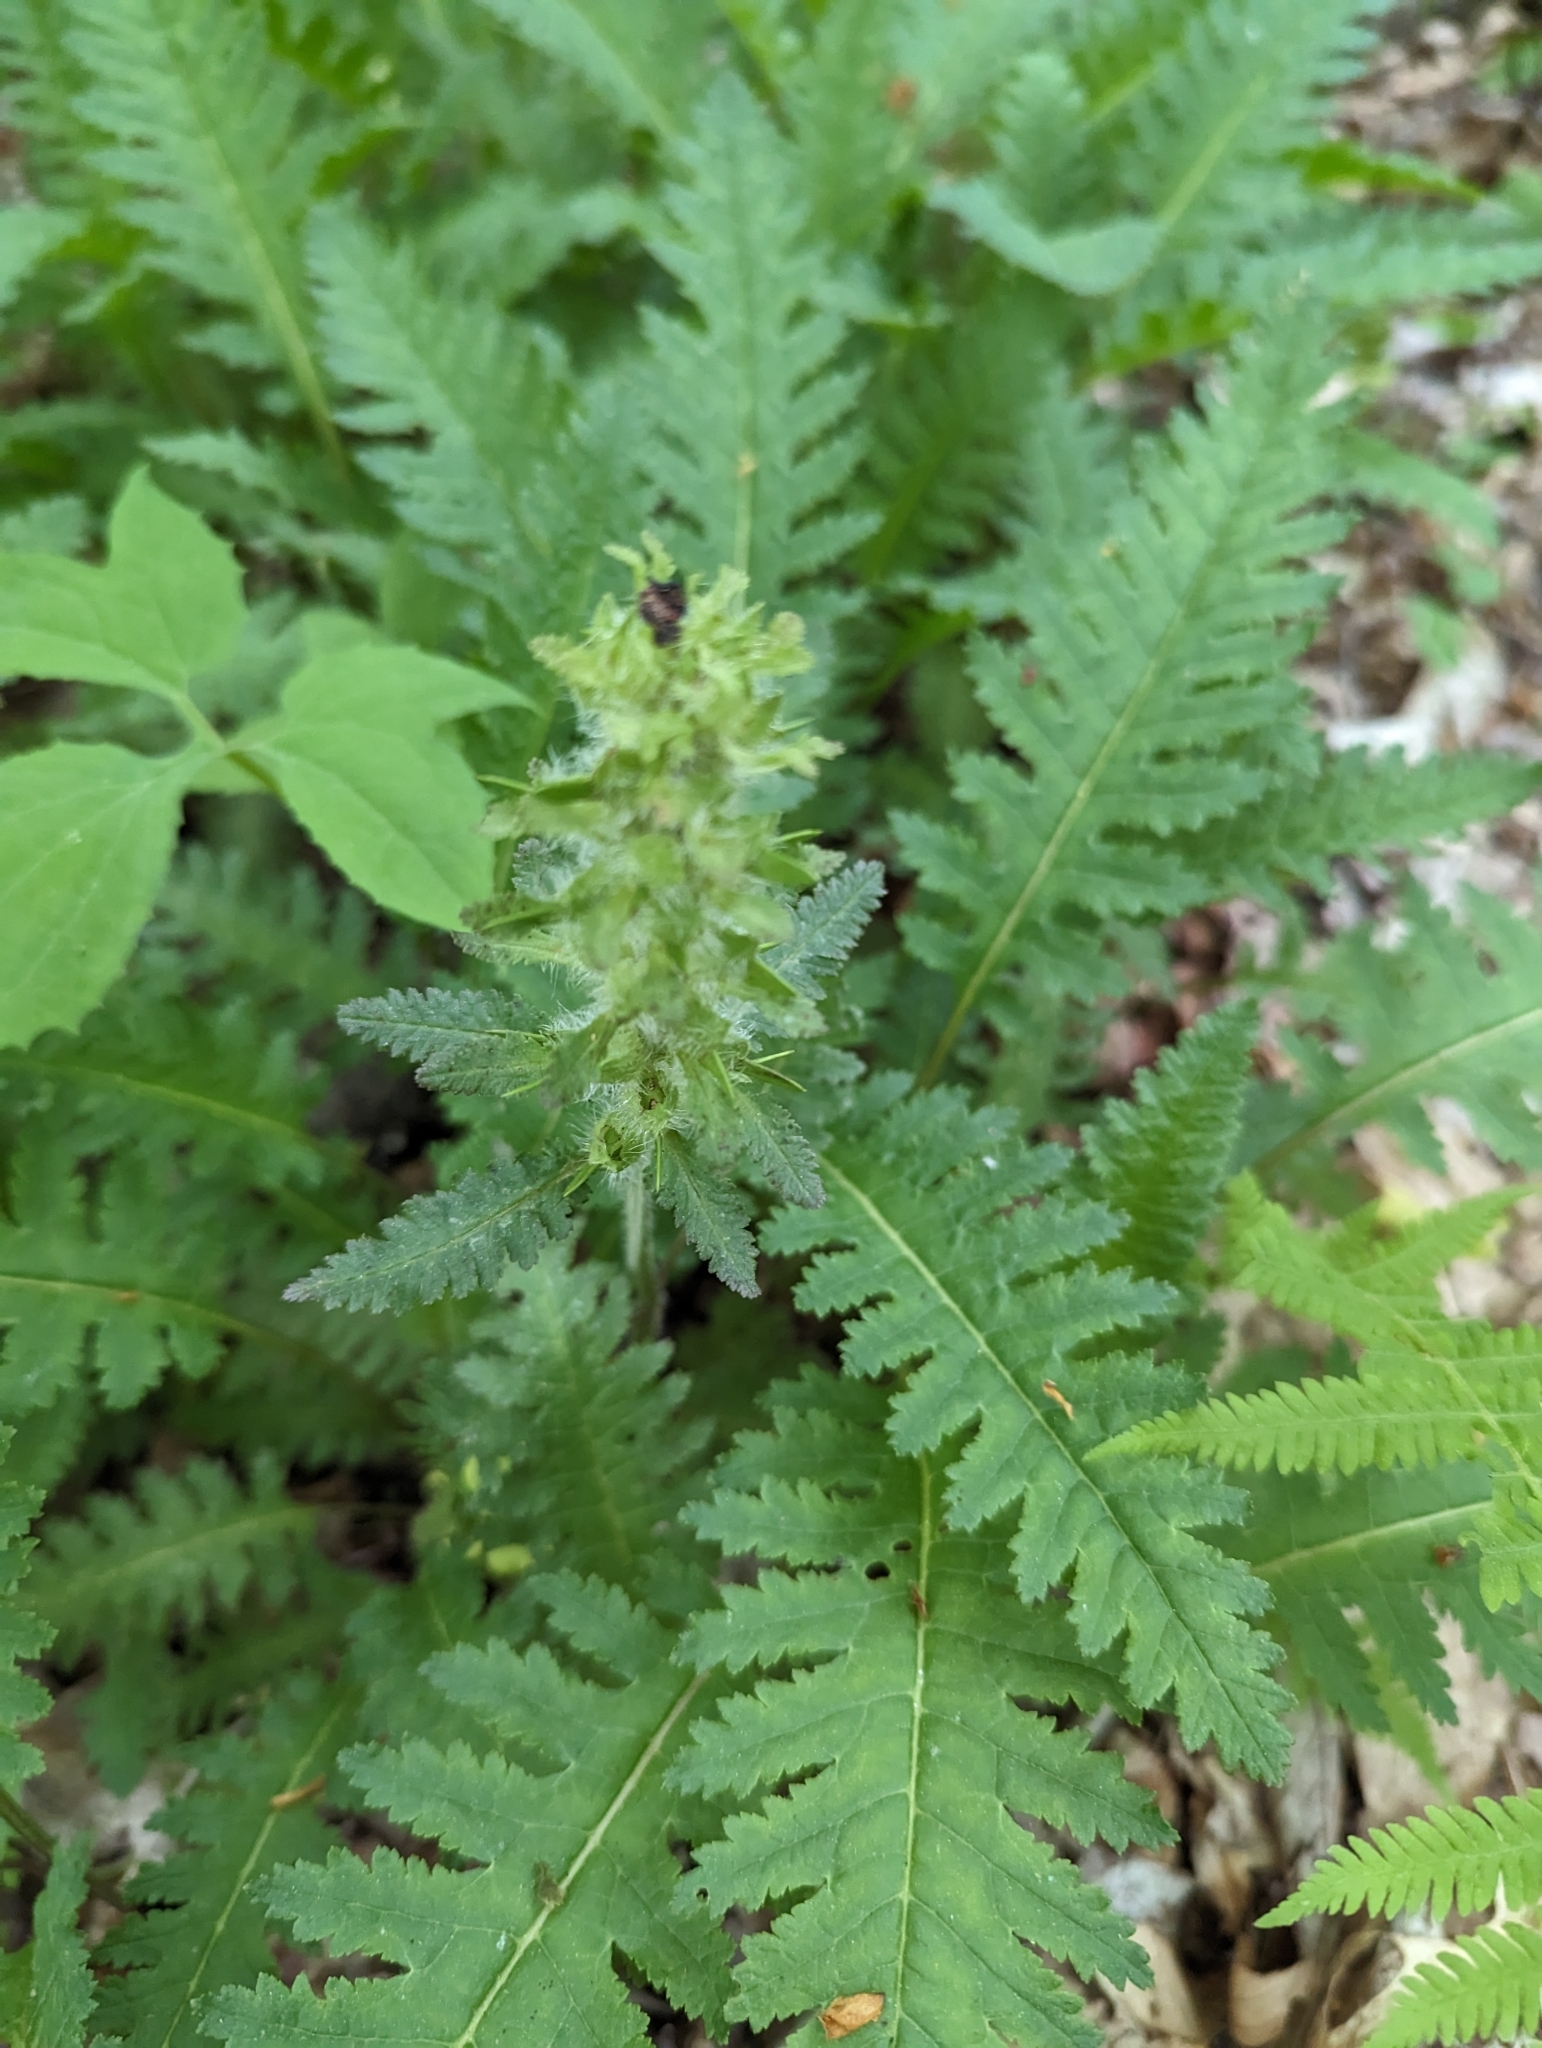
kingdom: Plantae
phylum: Tracheophyta
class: Magnoliopsida
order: Lamiales
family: Orobanchaceae
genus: Pedicularis
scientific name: Pedicularis canadensis
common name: Early lousewort
